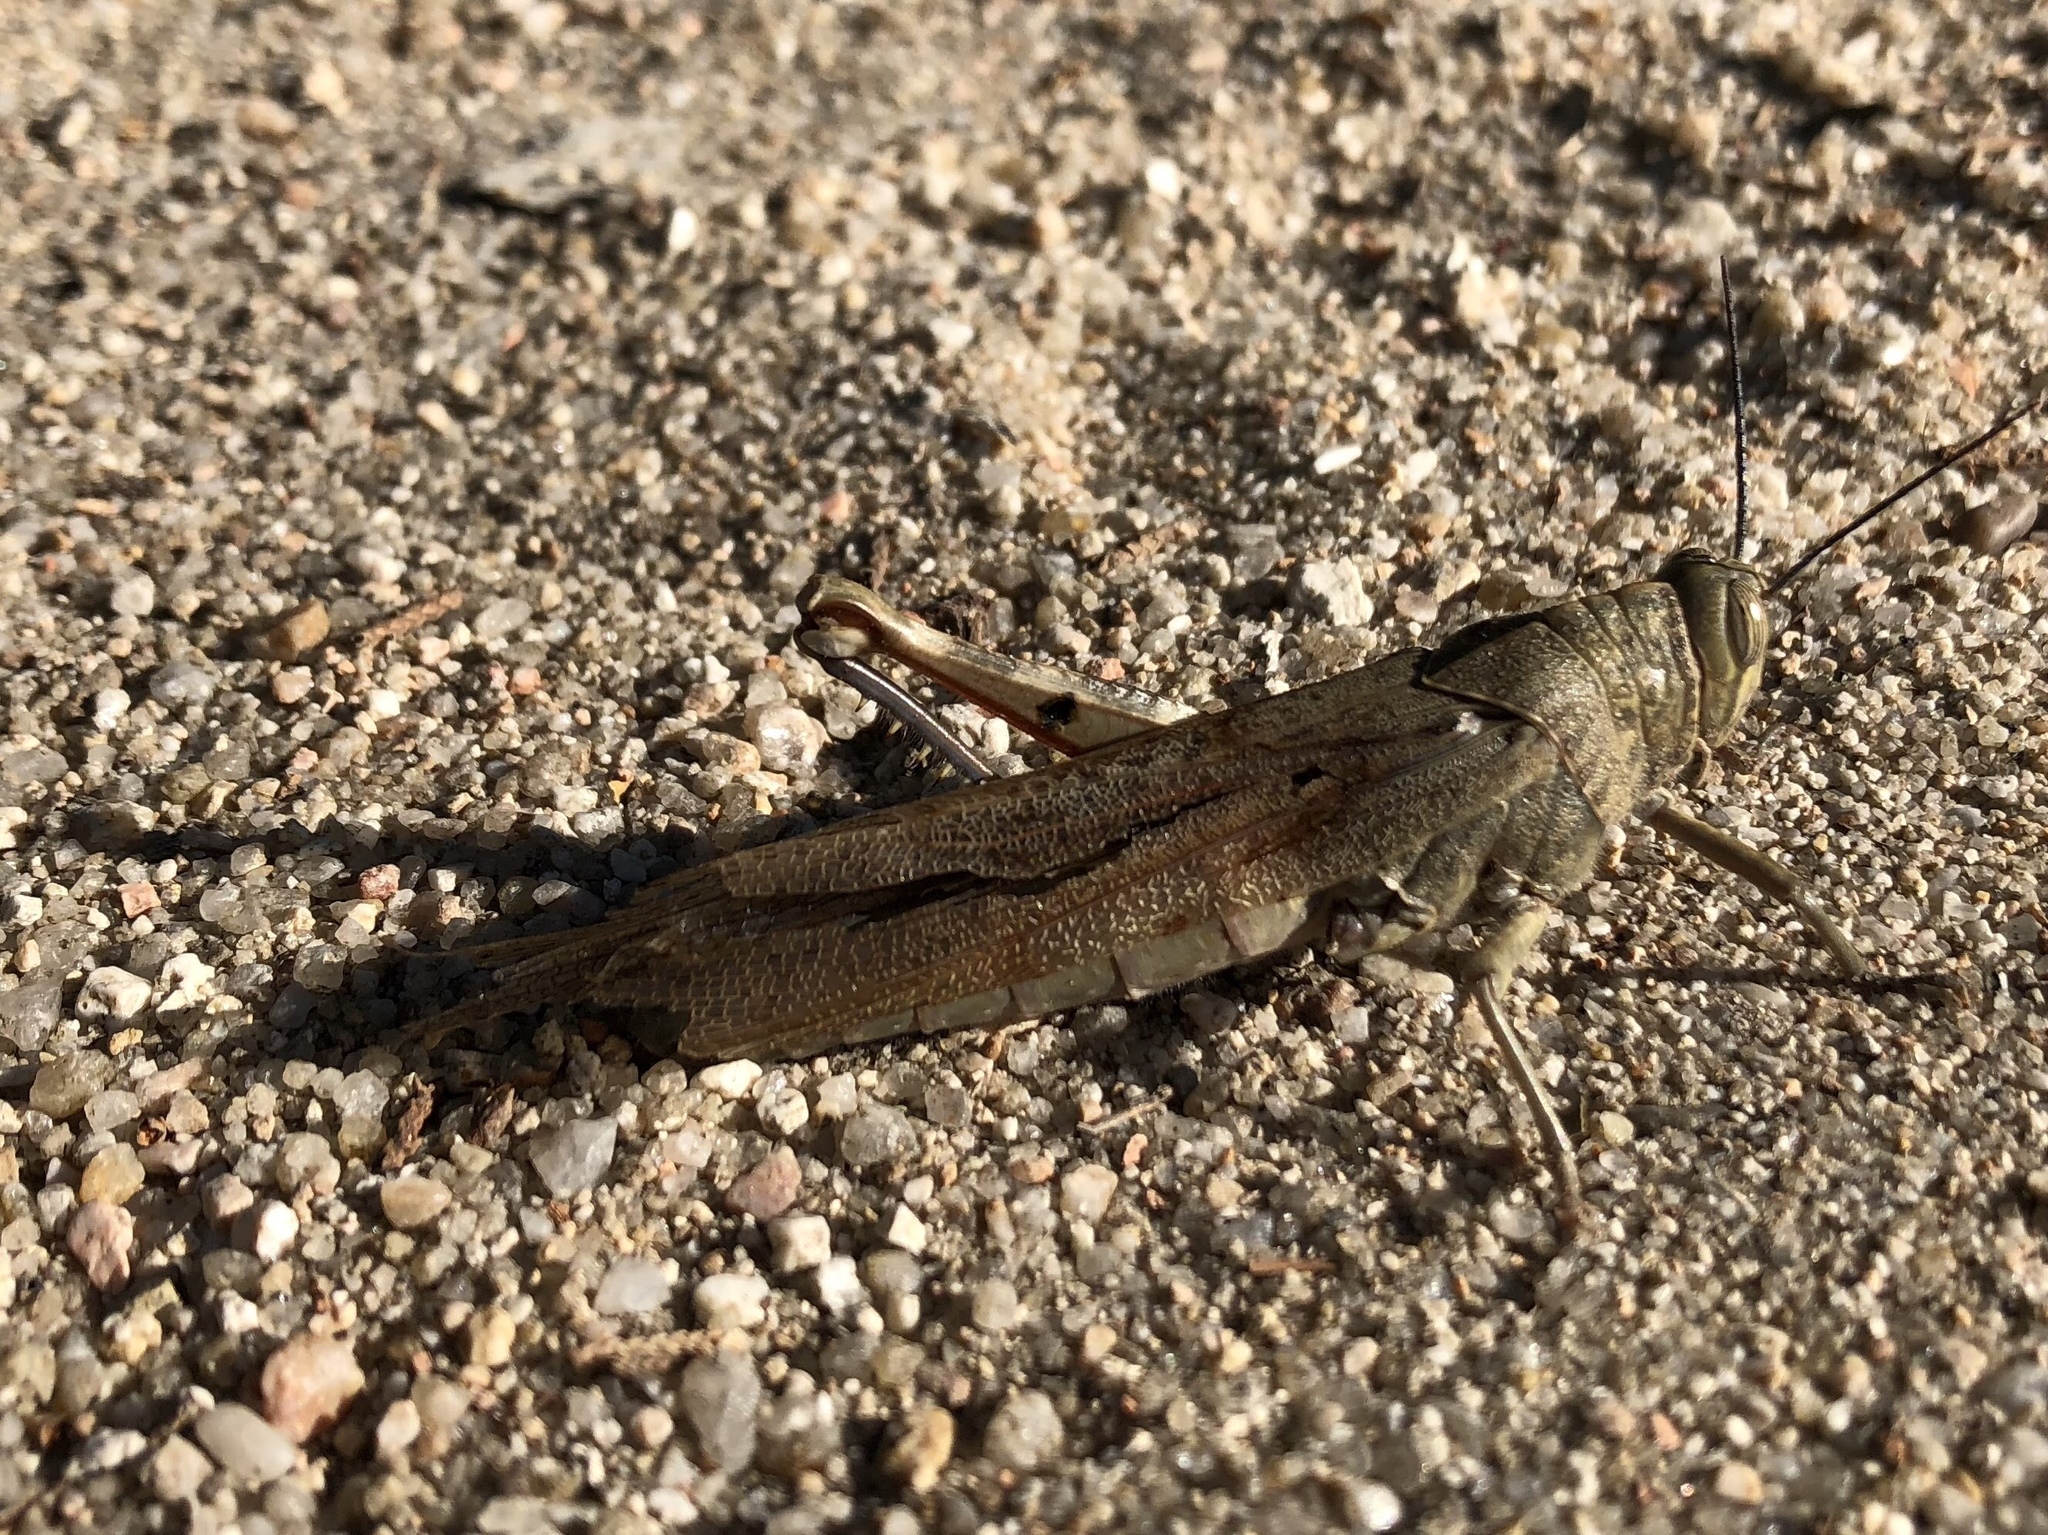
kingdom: Animalia
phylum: Arthropoda
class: Insecta
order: Orthoptera
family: Acrididae
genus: Anacridium
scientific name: Anacridium aegyptium
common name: Egyptian grasshopper
